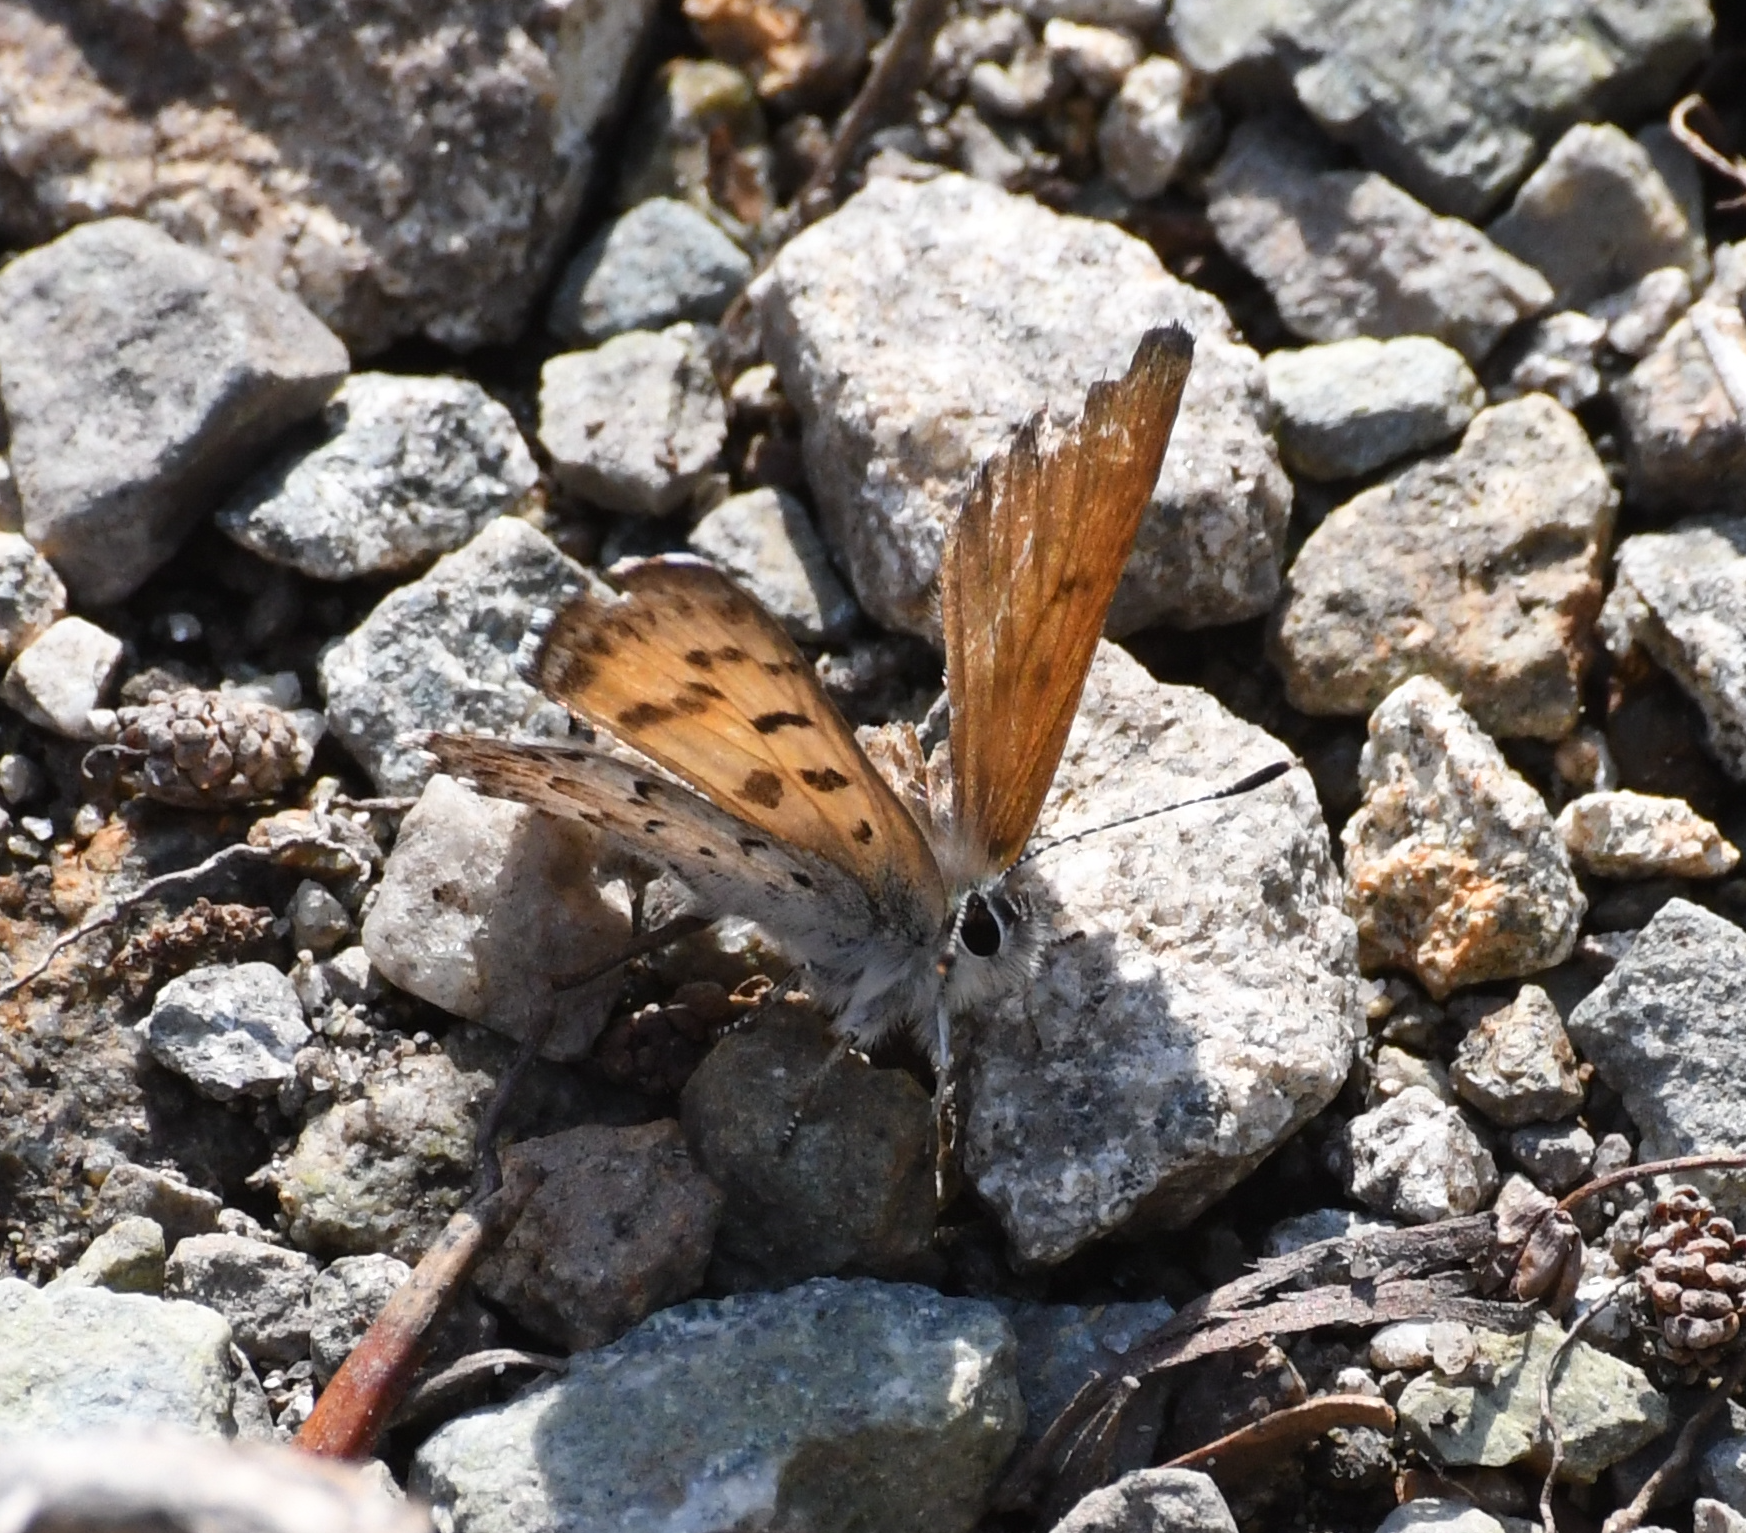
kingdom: Animalia
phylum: Arthropoda
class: Insecta
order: Lepidoptera
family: Lycaenidae
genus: Tharsalea
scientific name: Tharsalea mariposa
